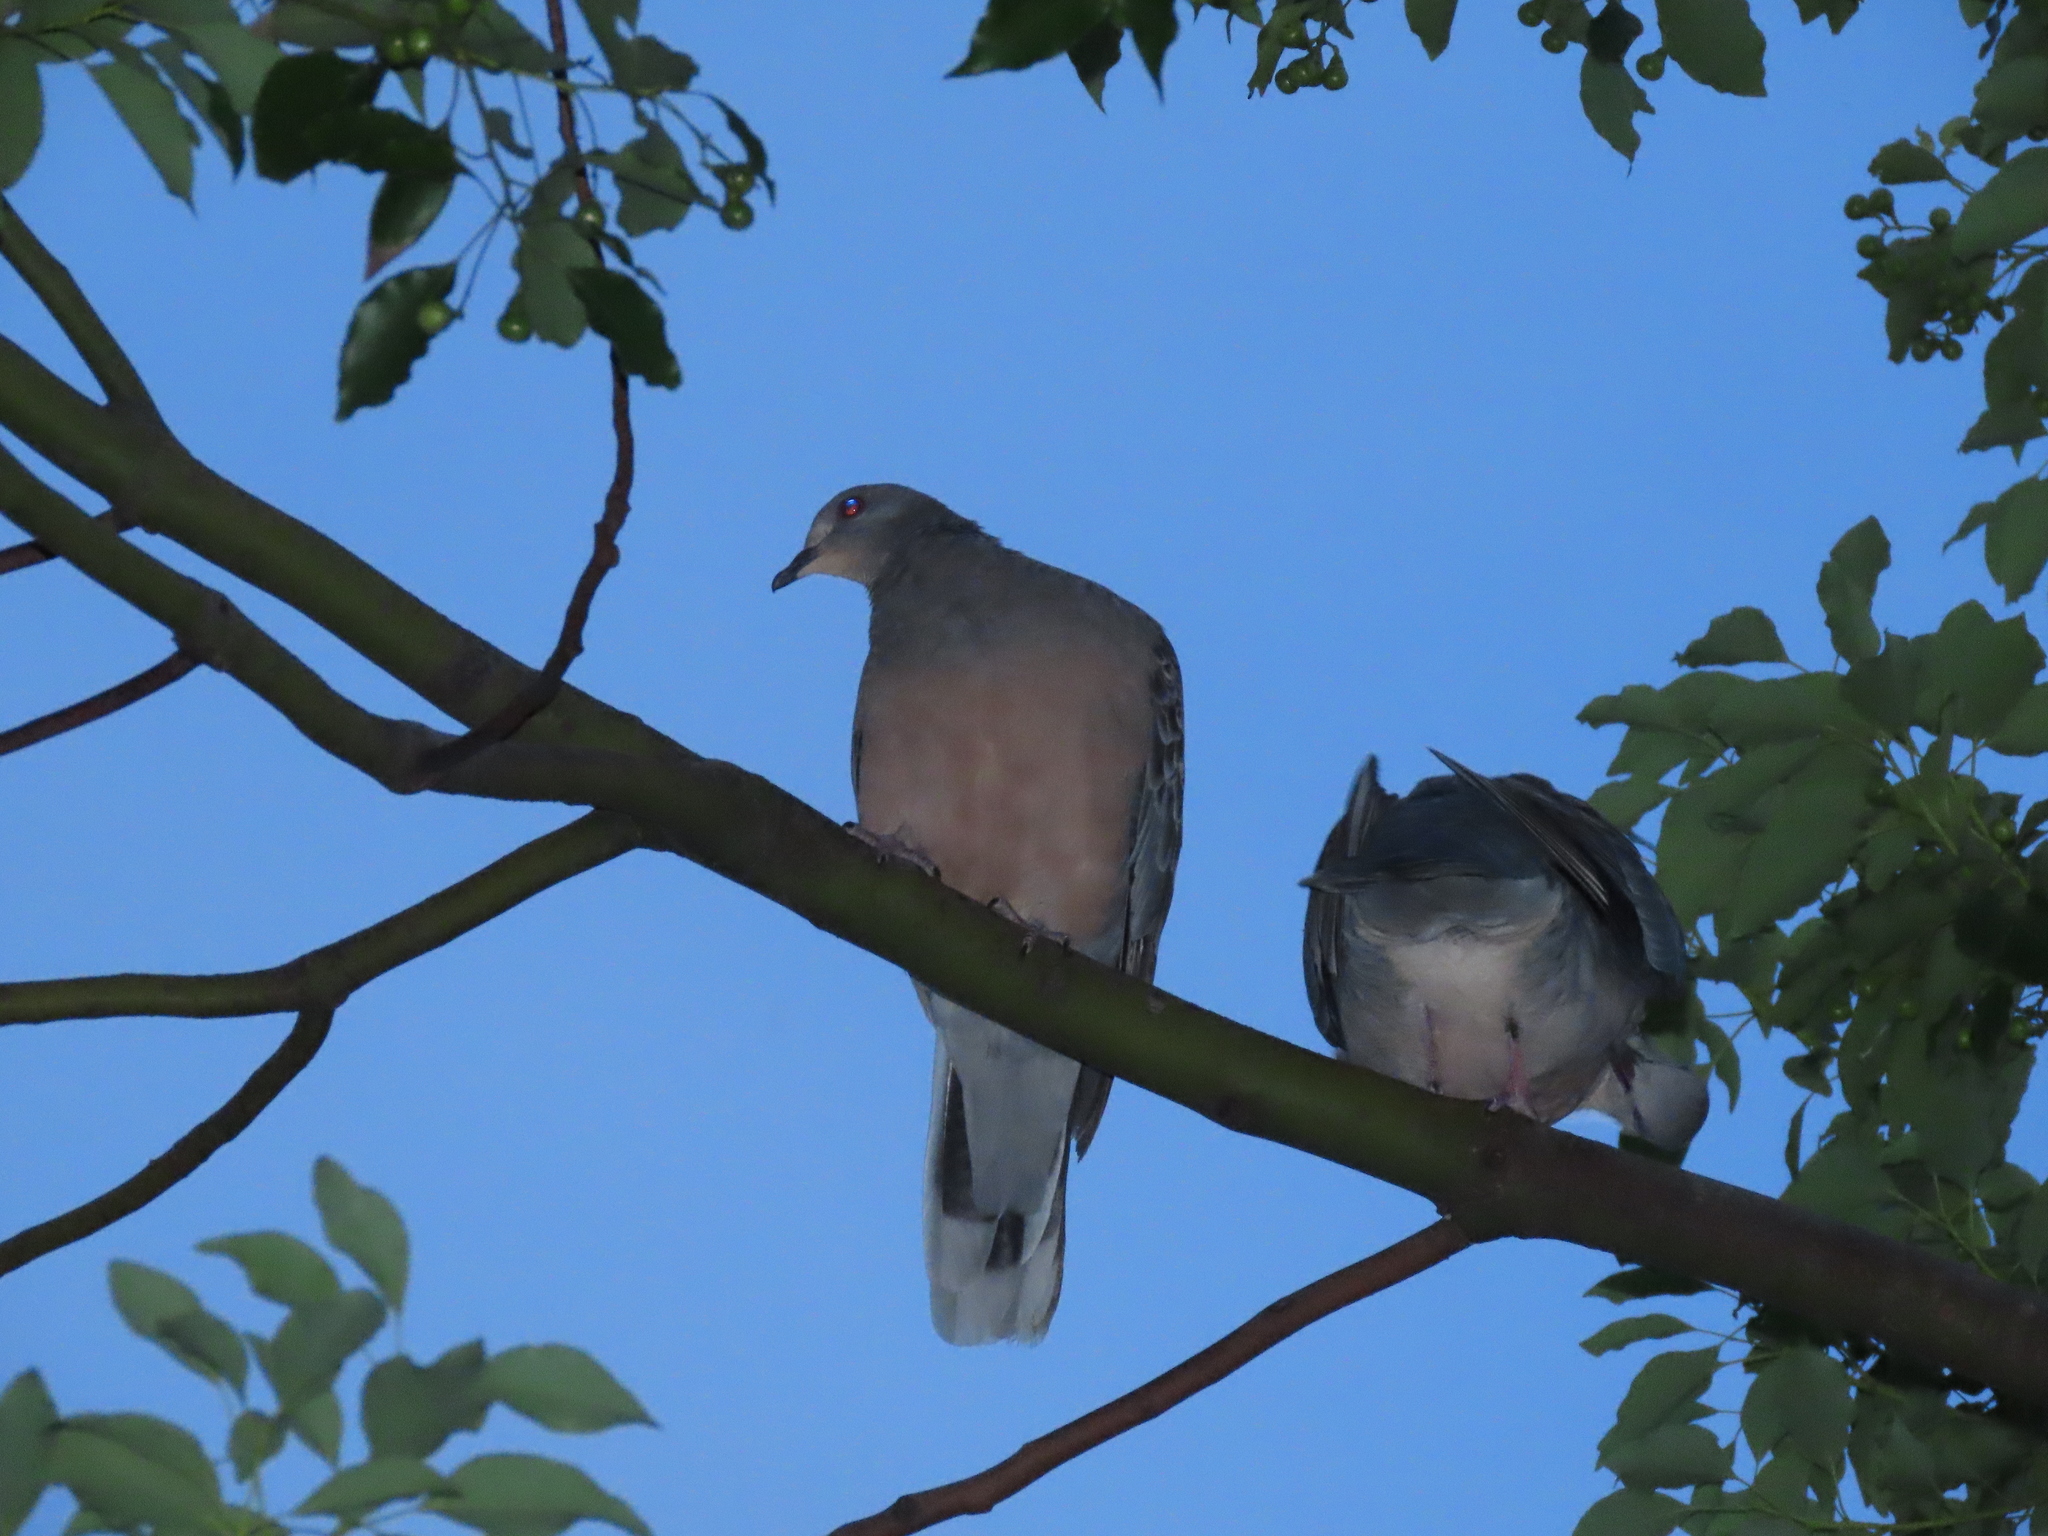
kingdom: Animalia
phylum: Chordata
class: Aves
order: Columbiformes
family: Columbidae
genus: Streptopelia
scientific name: Streptopelia orientalis
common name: Oriental turtle dove
